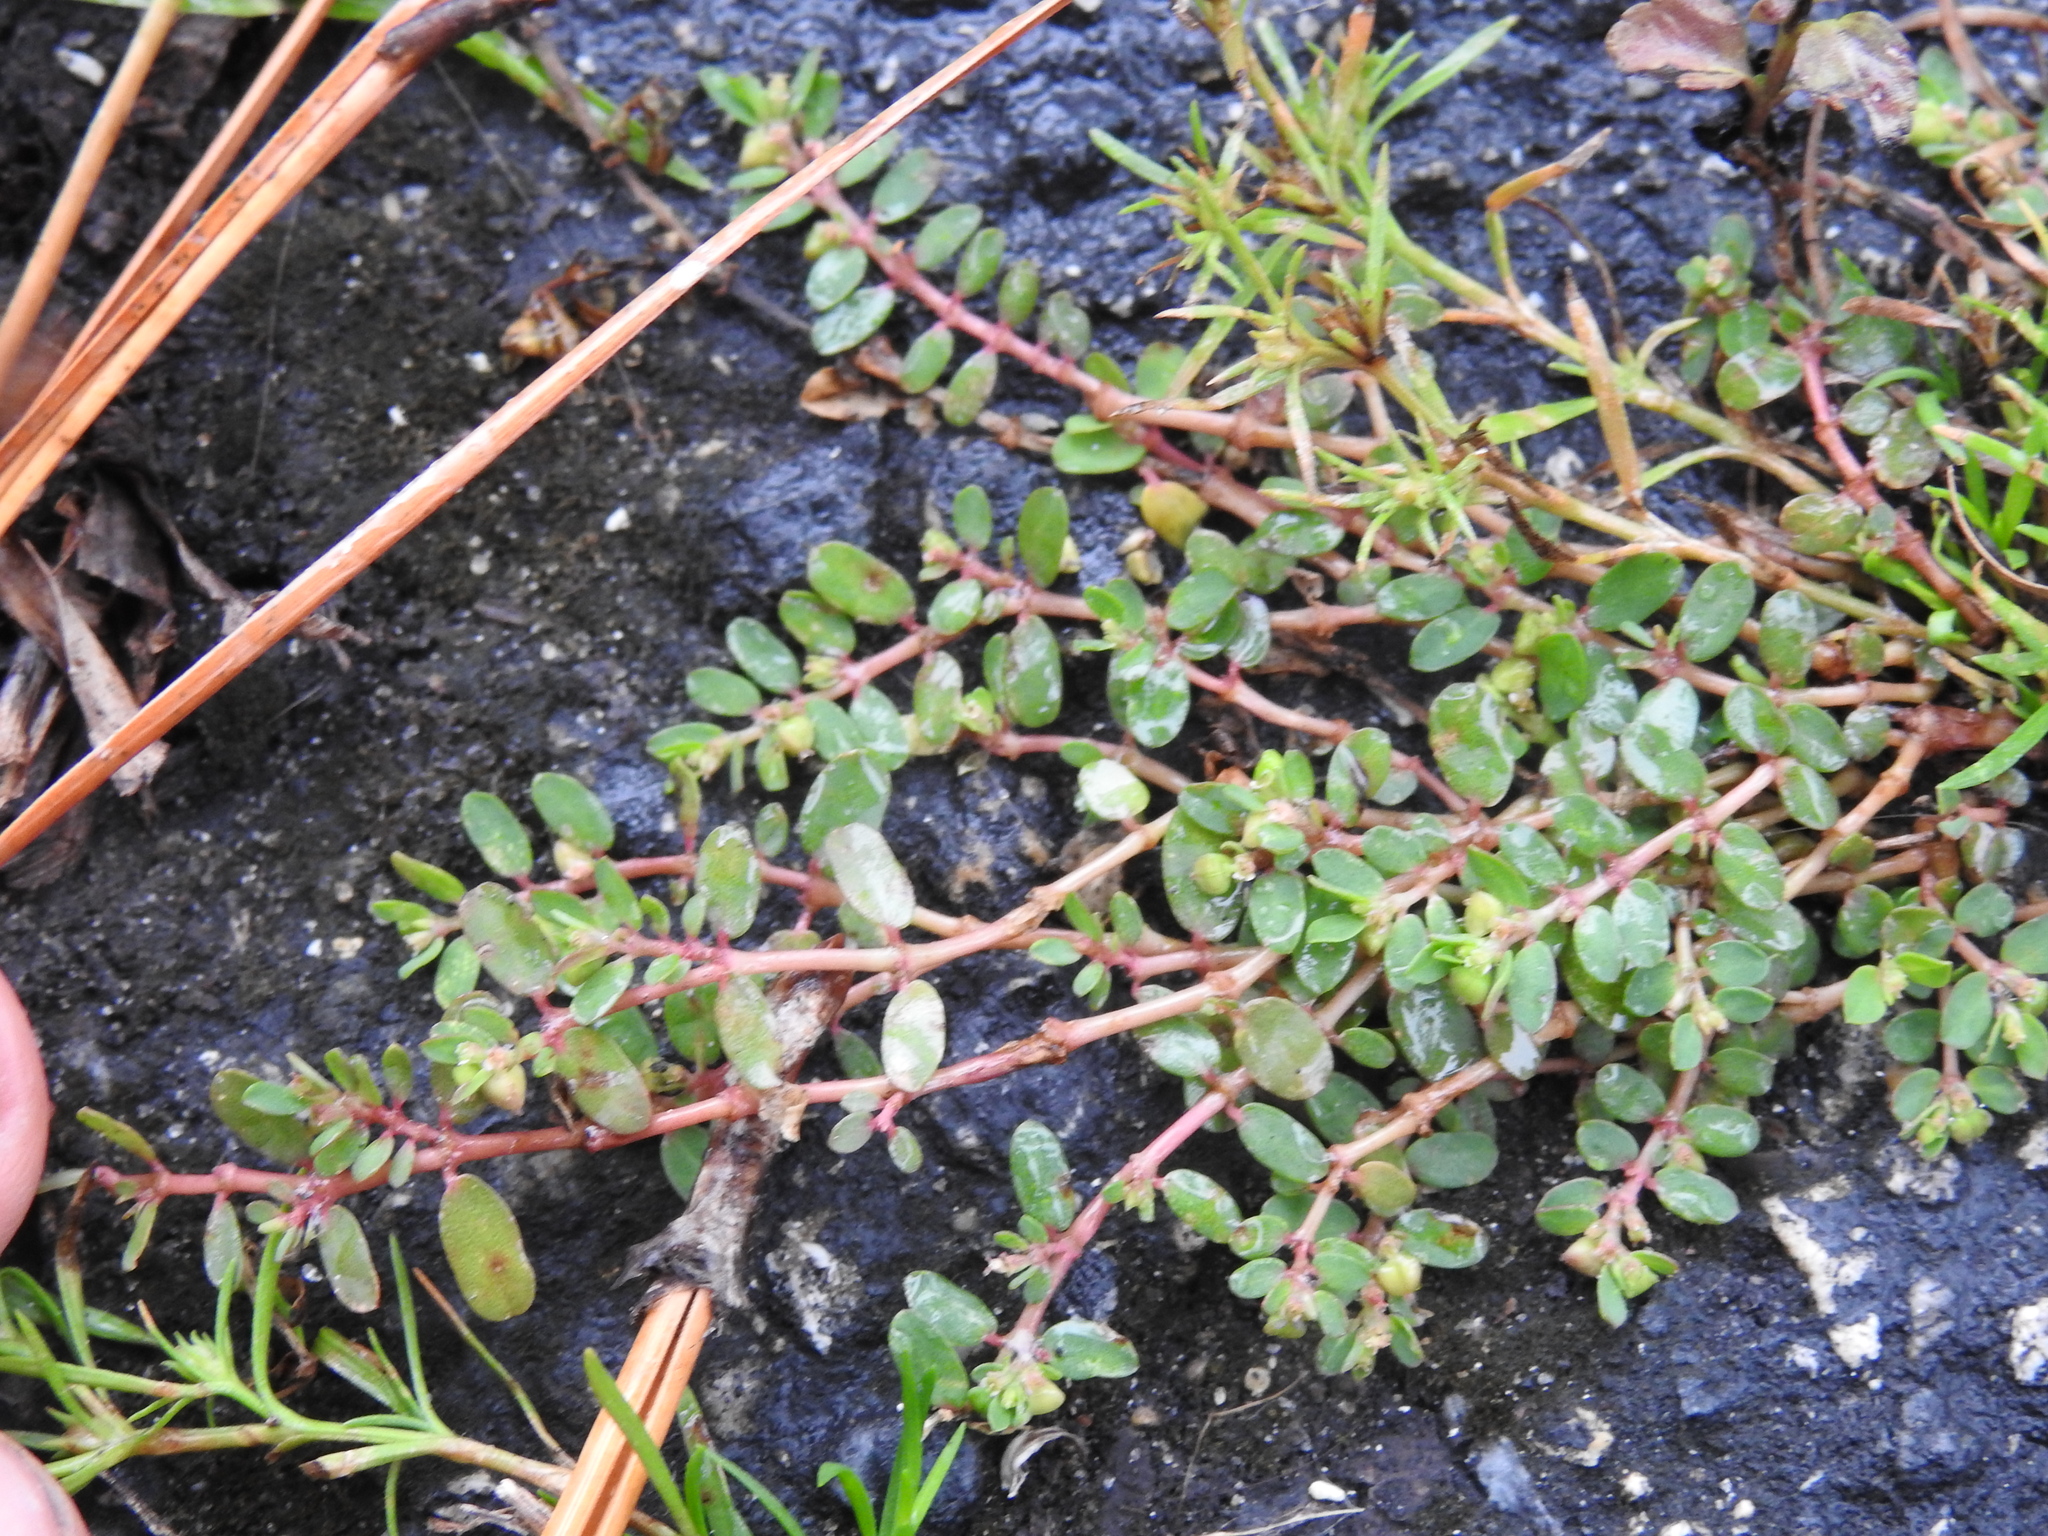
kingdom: Plantae
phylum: Tracheophyta
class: Magnoliopsida
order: Malpighiales
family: Euphorbiaceae
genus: Euphorbia
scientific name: Euphorbia maculata
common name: Spotted spurge
